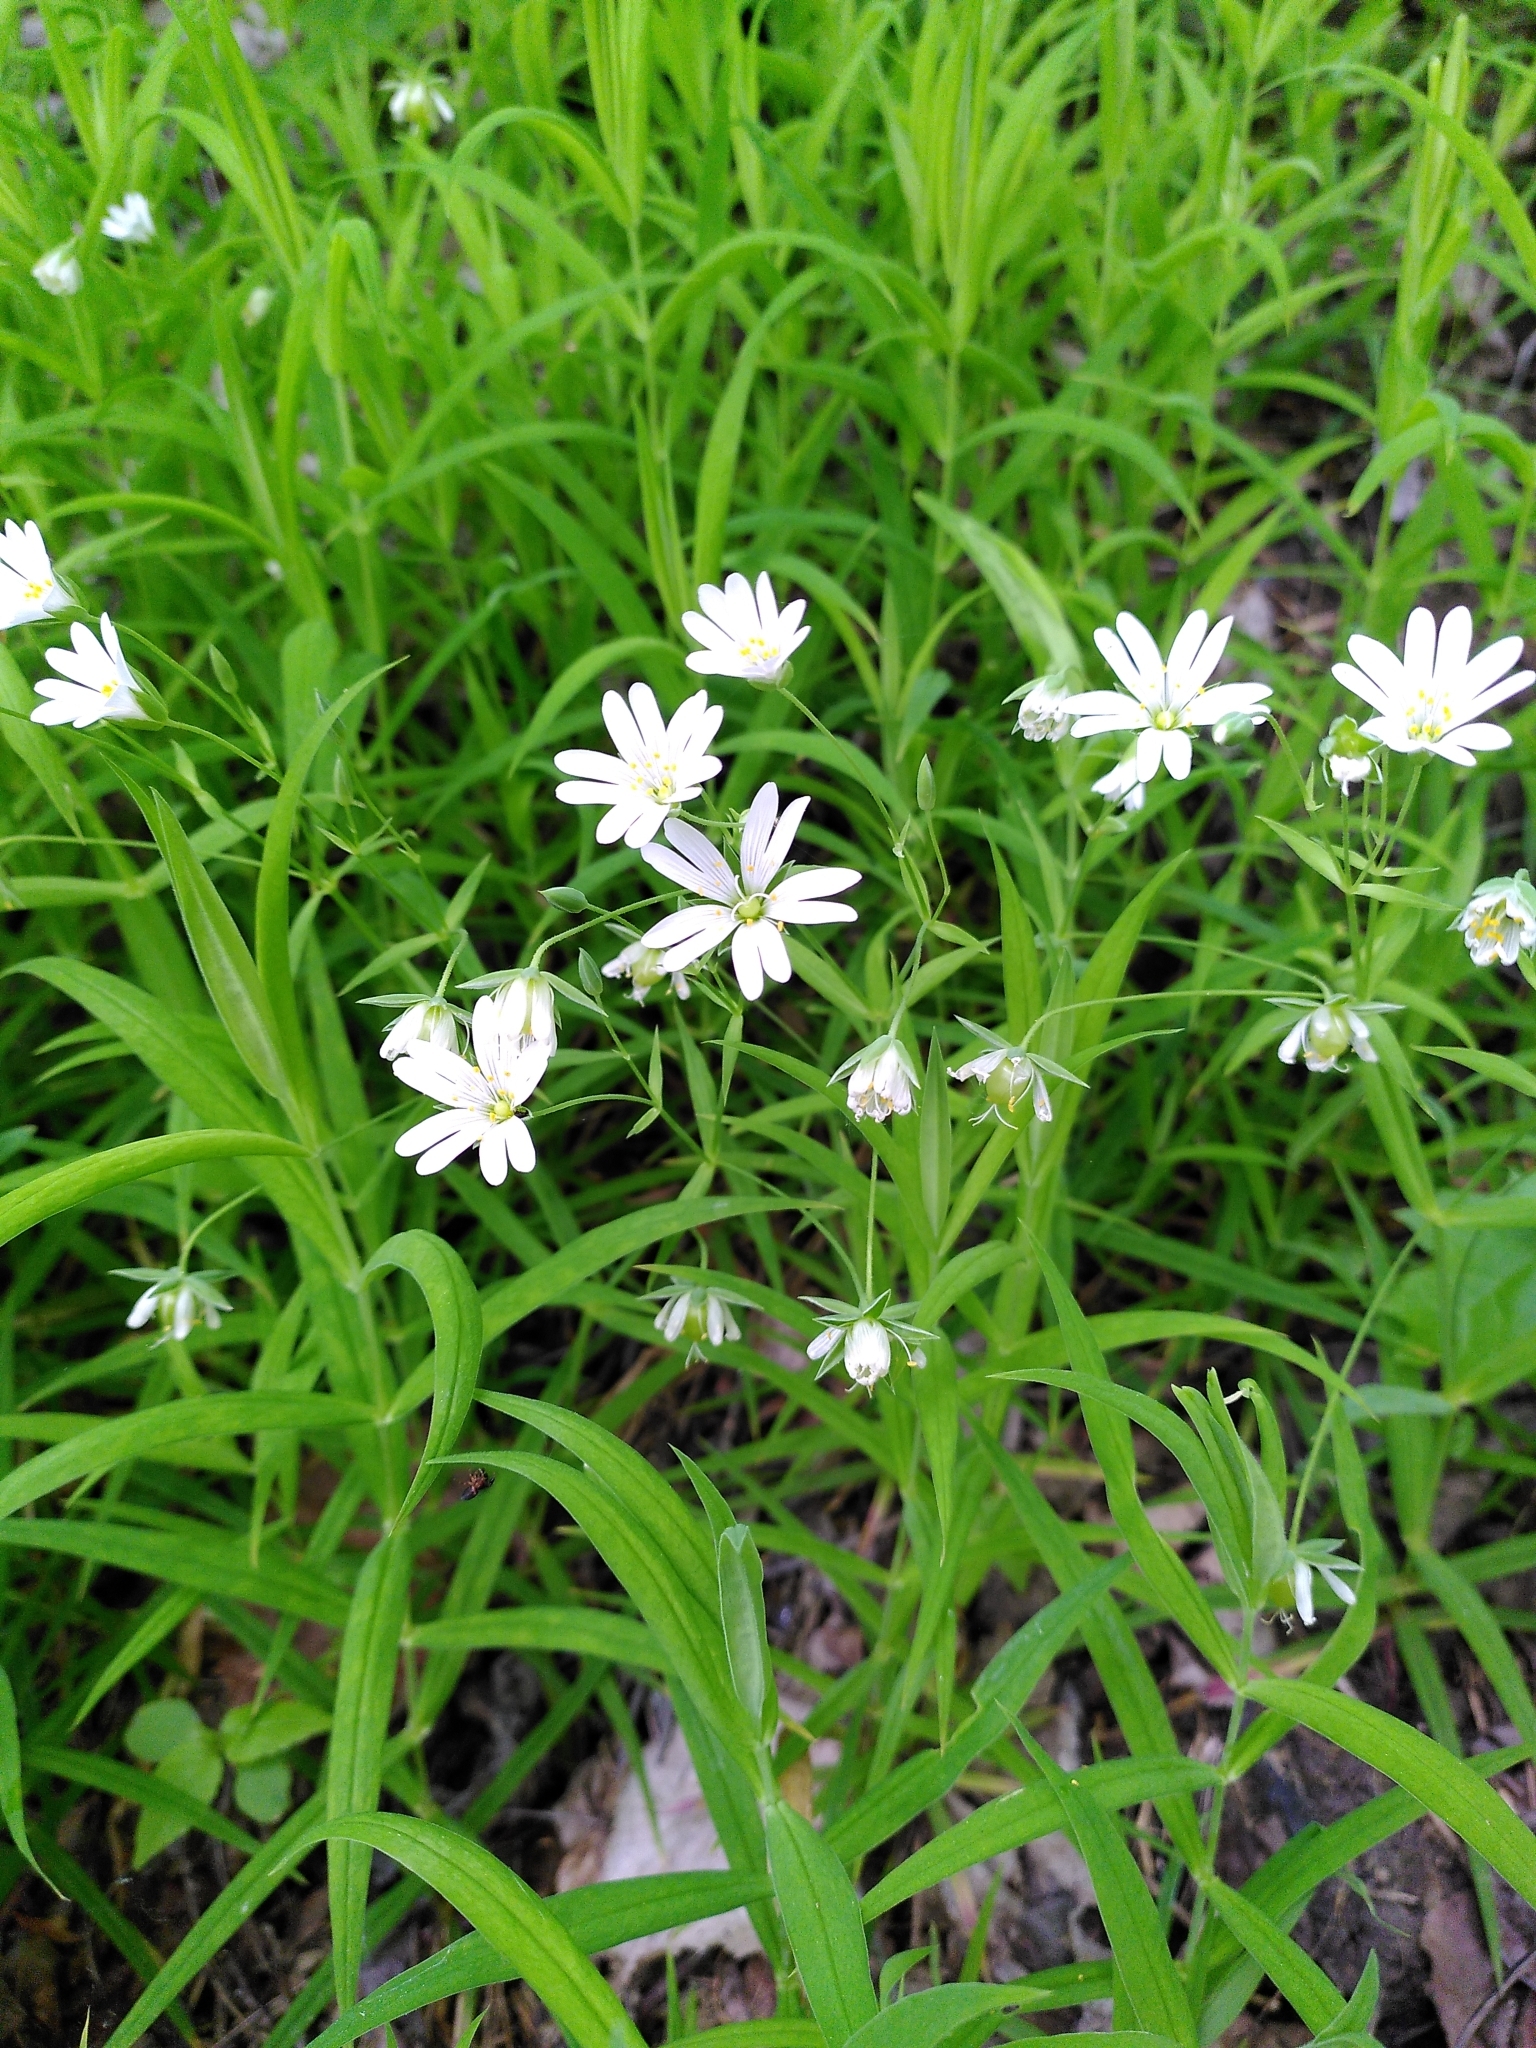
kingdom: Plantae
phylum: Tracheophyta
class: Magnoliopsida
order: Caryophyllales
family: Caryophyllaceae
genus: Rabelera
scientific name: Rabelera holostea
